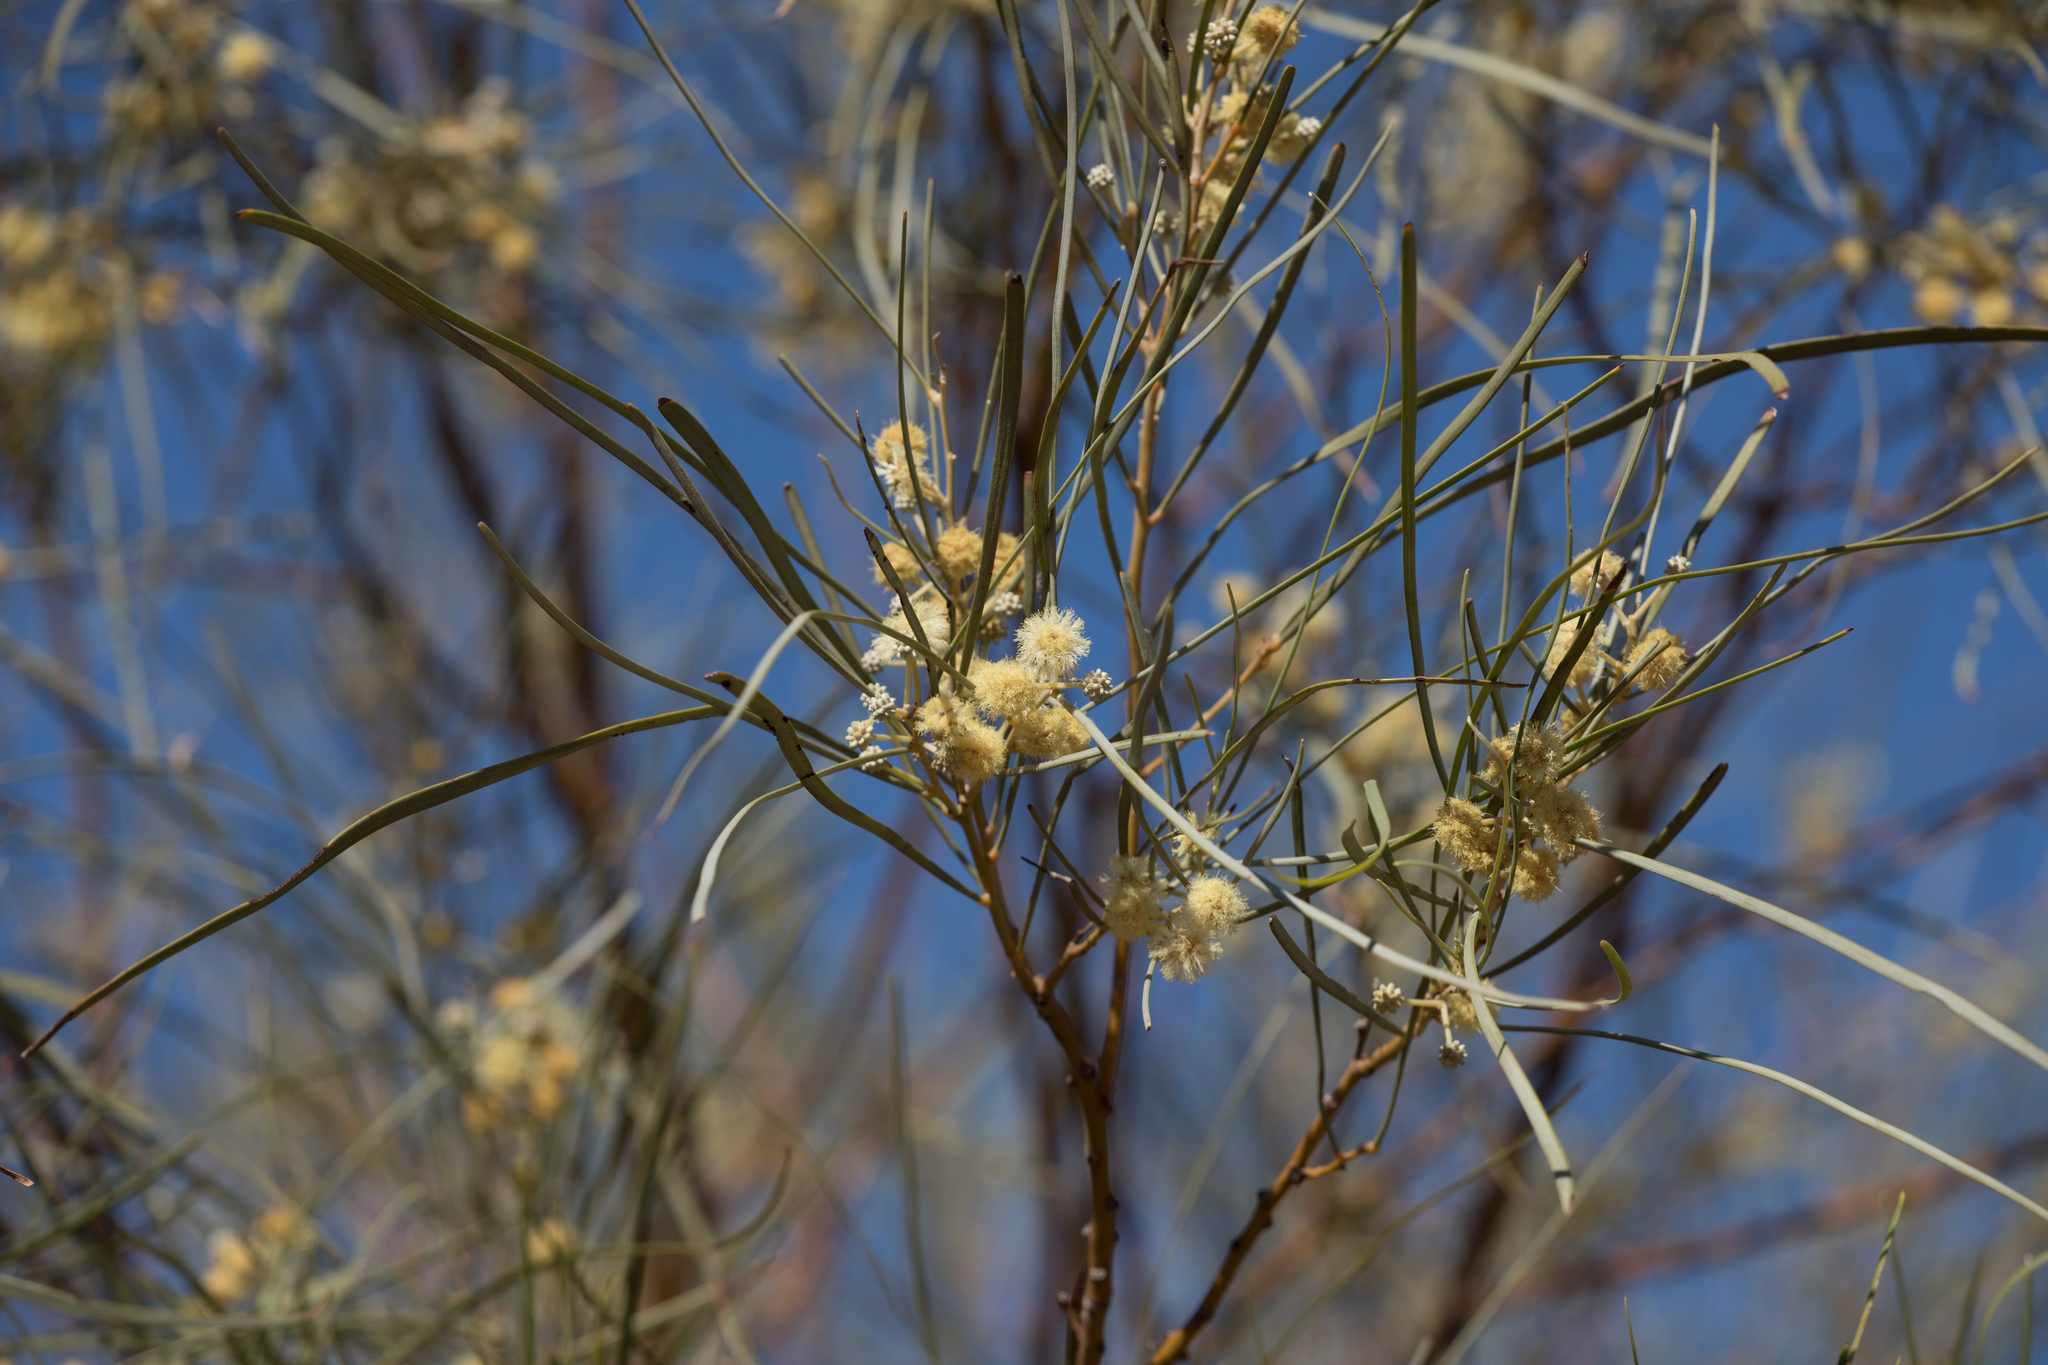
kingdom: Plantae
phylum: Tracheophyta
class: Magnoliopsida
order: Fabales
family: Fabaceae
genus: Acacia
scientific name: Acacia stenophylla
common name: River cooba
